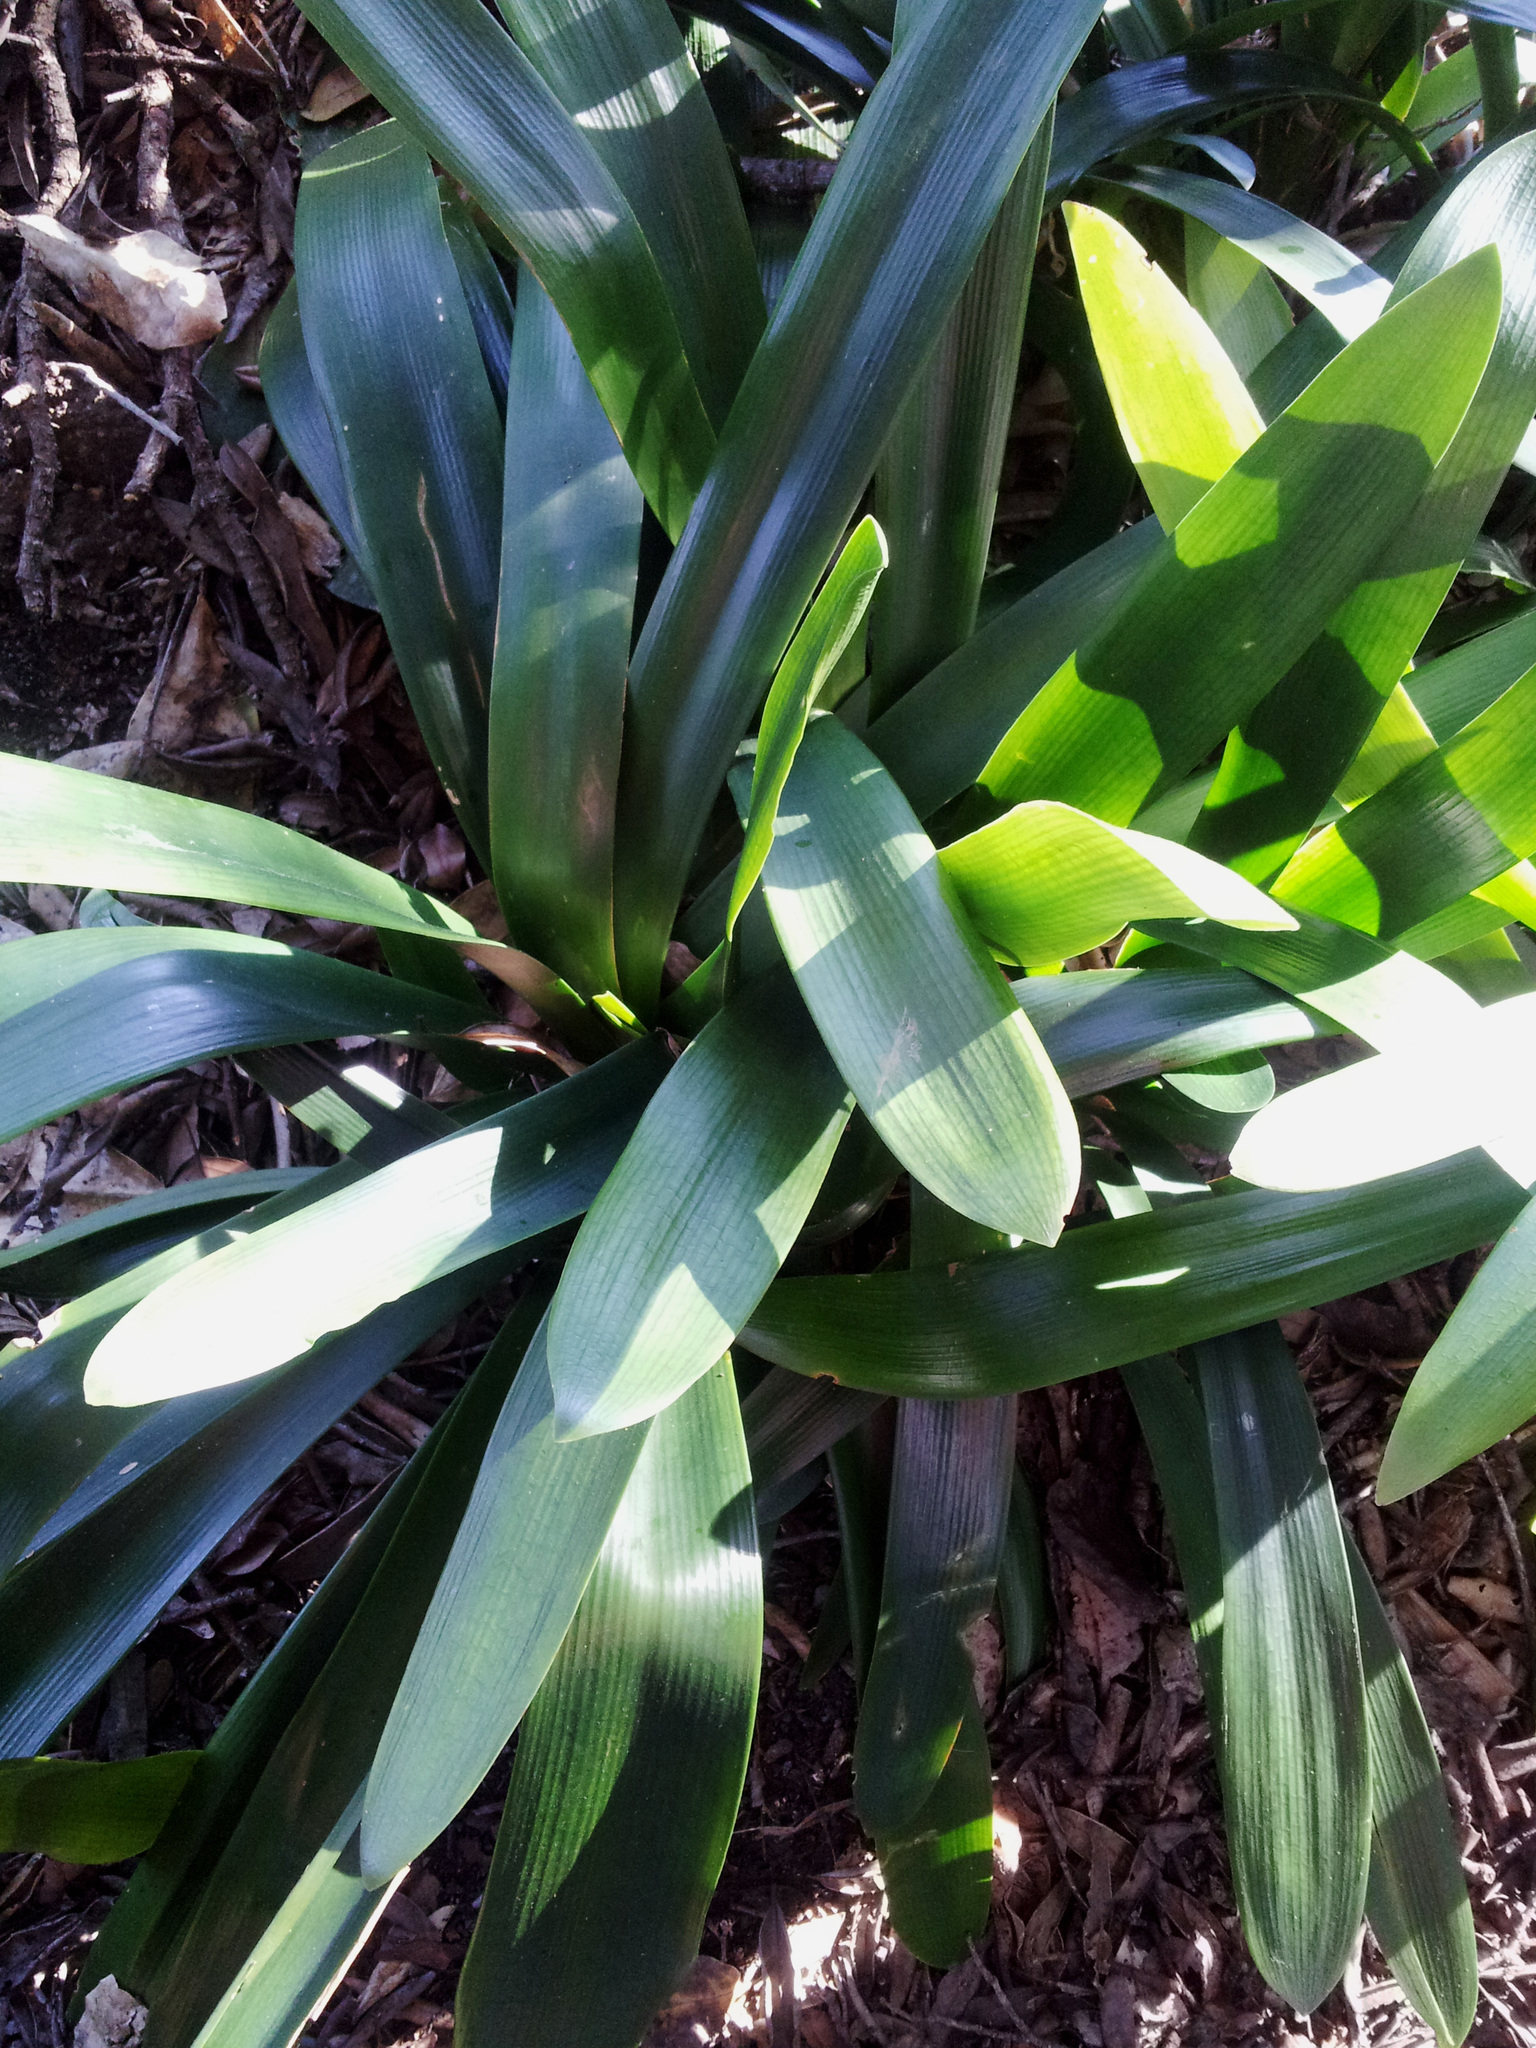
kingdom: Plantae
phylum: Tracheophyta
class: Liliopsida
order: Asparagales
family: Amaryllidaceae
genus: Clivia
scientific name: Clivia miniata
